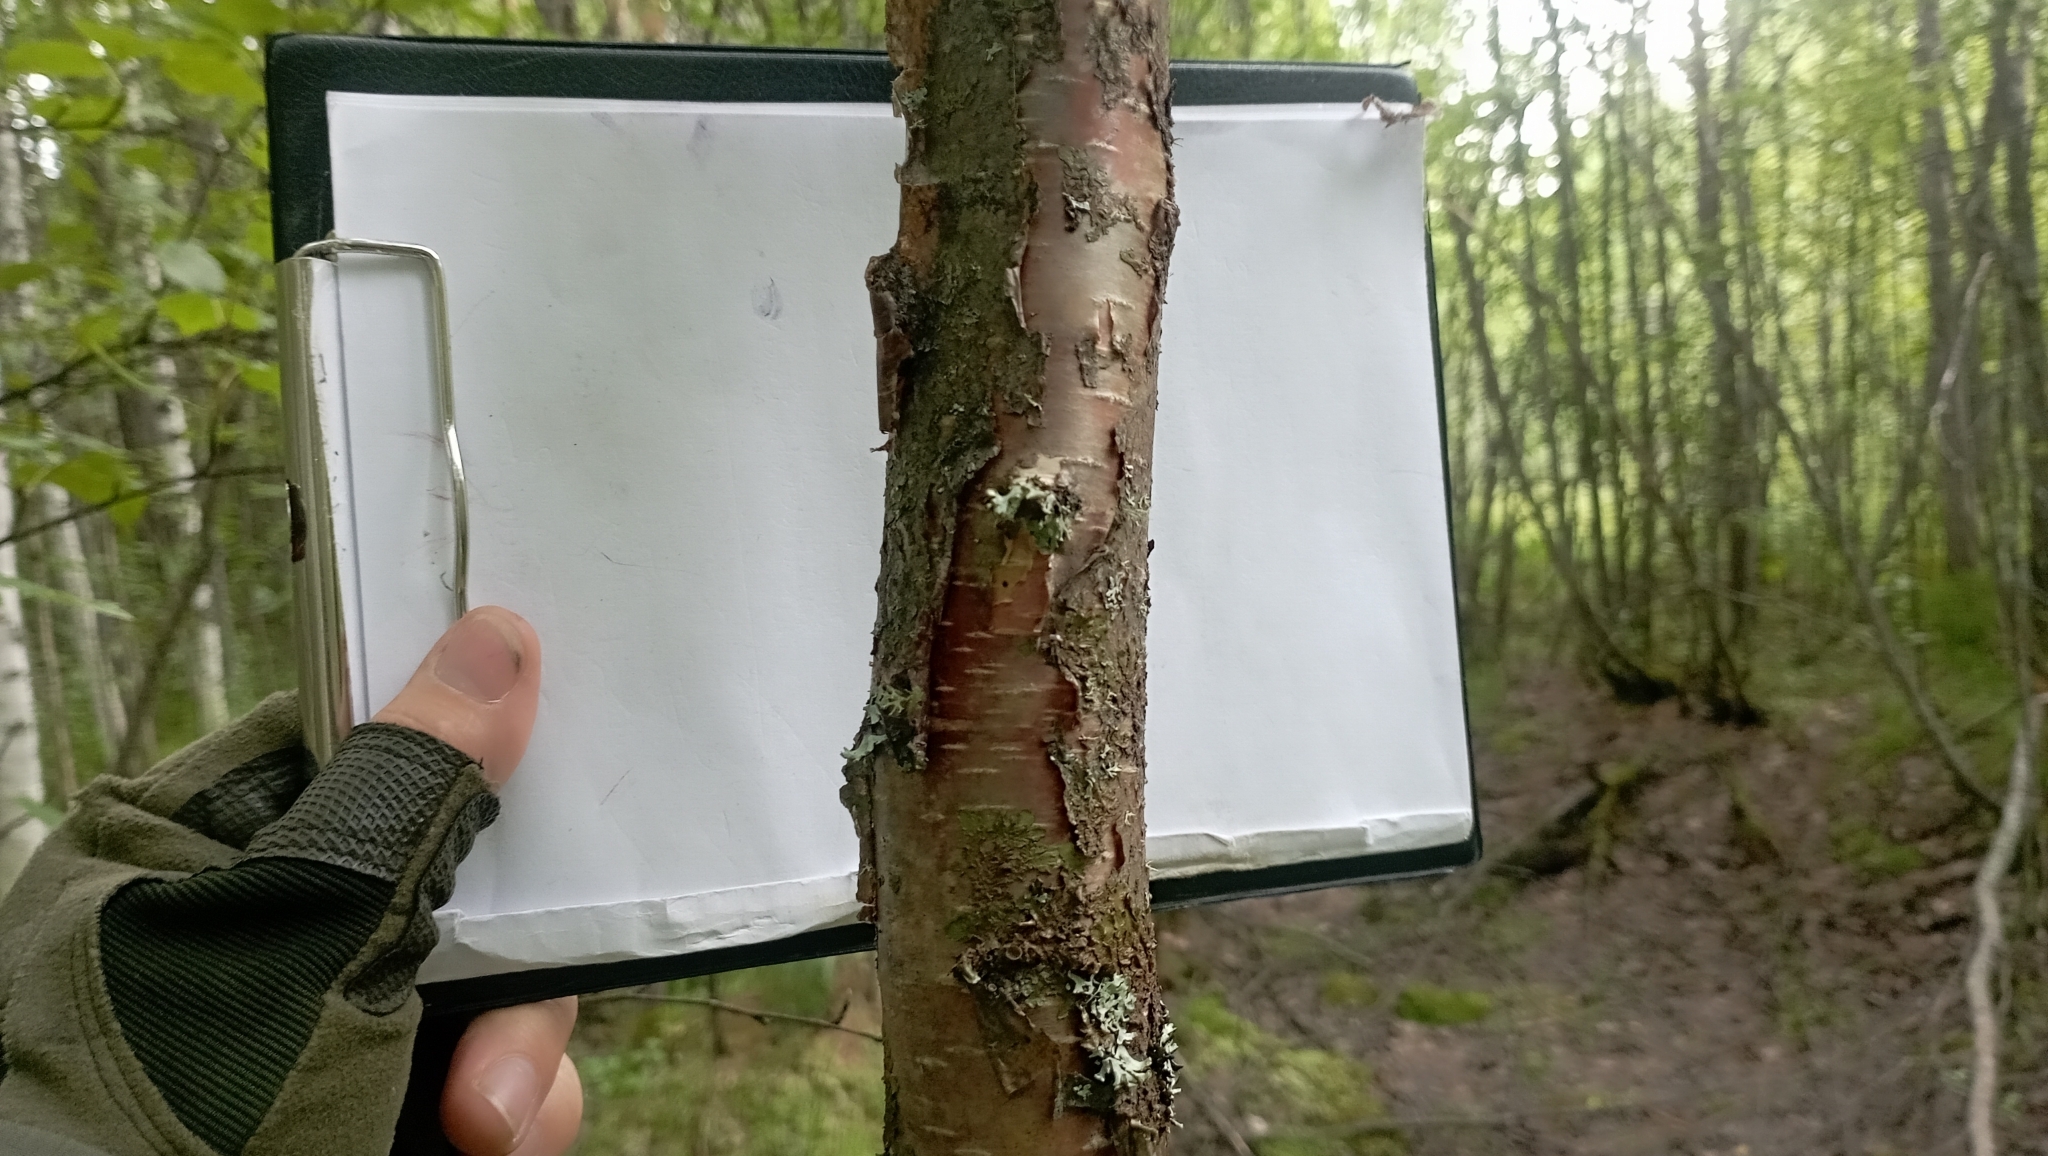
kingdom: Plantae
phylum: Tracheophyta
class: Magnoliopsida
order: Fagales
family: Betulaceae
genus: Betula
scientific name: Betula pubescens
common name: Downy birch
